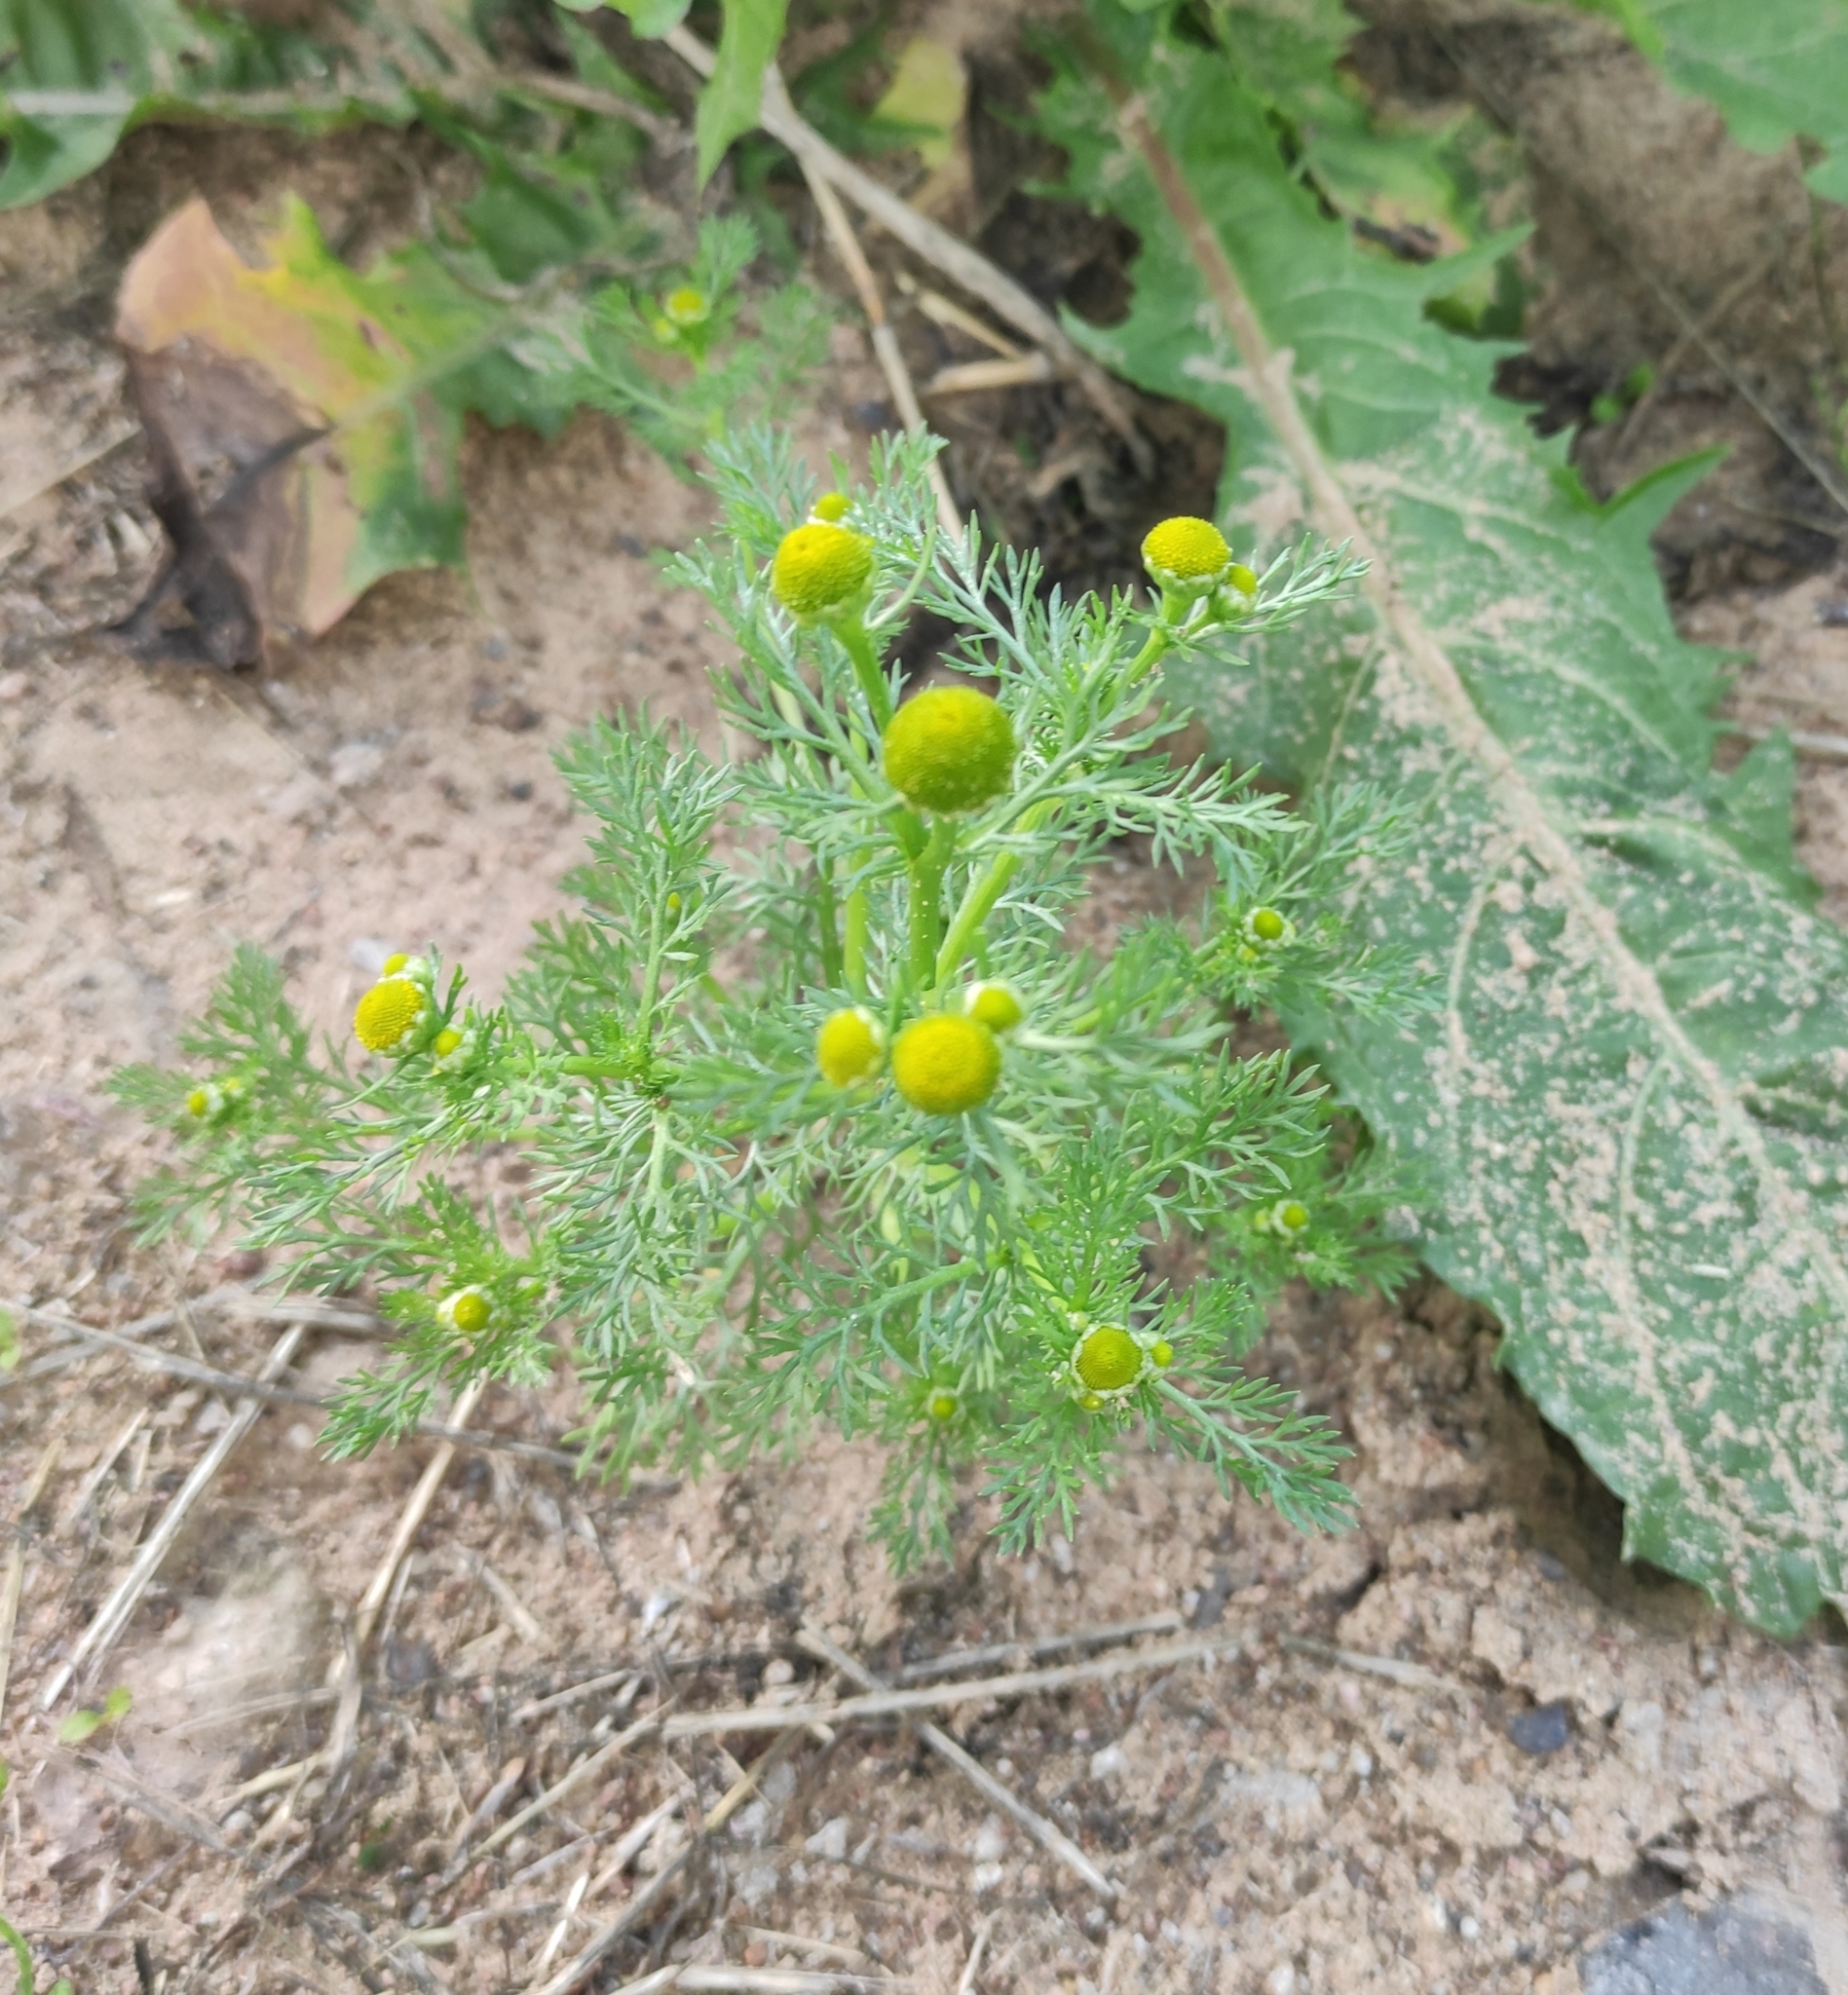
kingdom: Plantae
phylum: Tracheophyta
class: Magnoliopsida
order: Asterales
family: Asteraceae
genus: Matricaria
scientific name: Matricaria discoidea
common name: Disc mayweed
